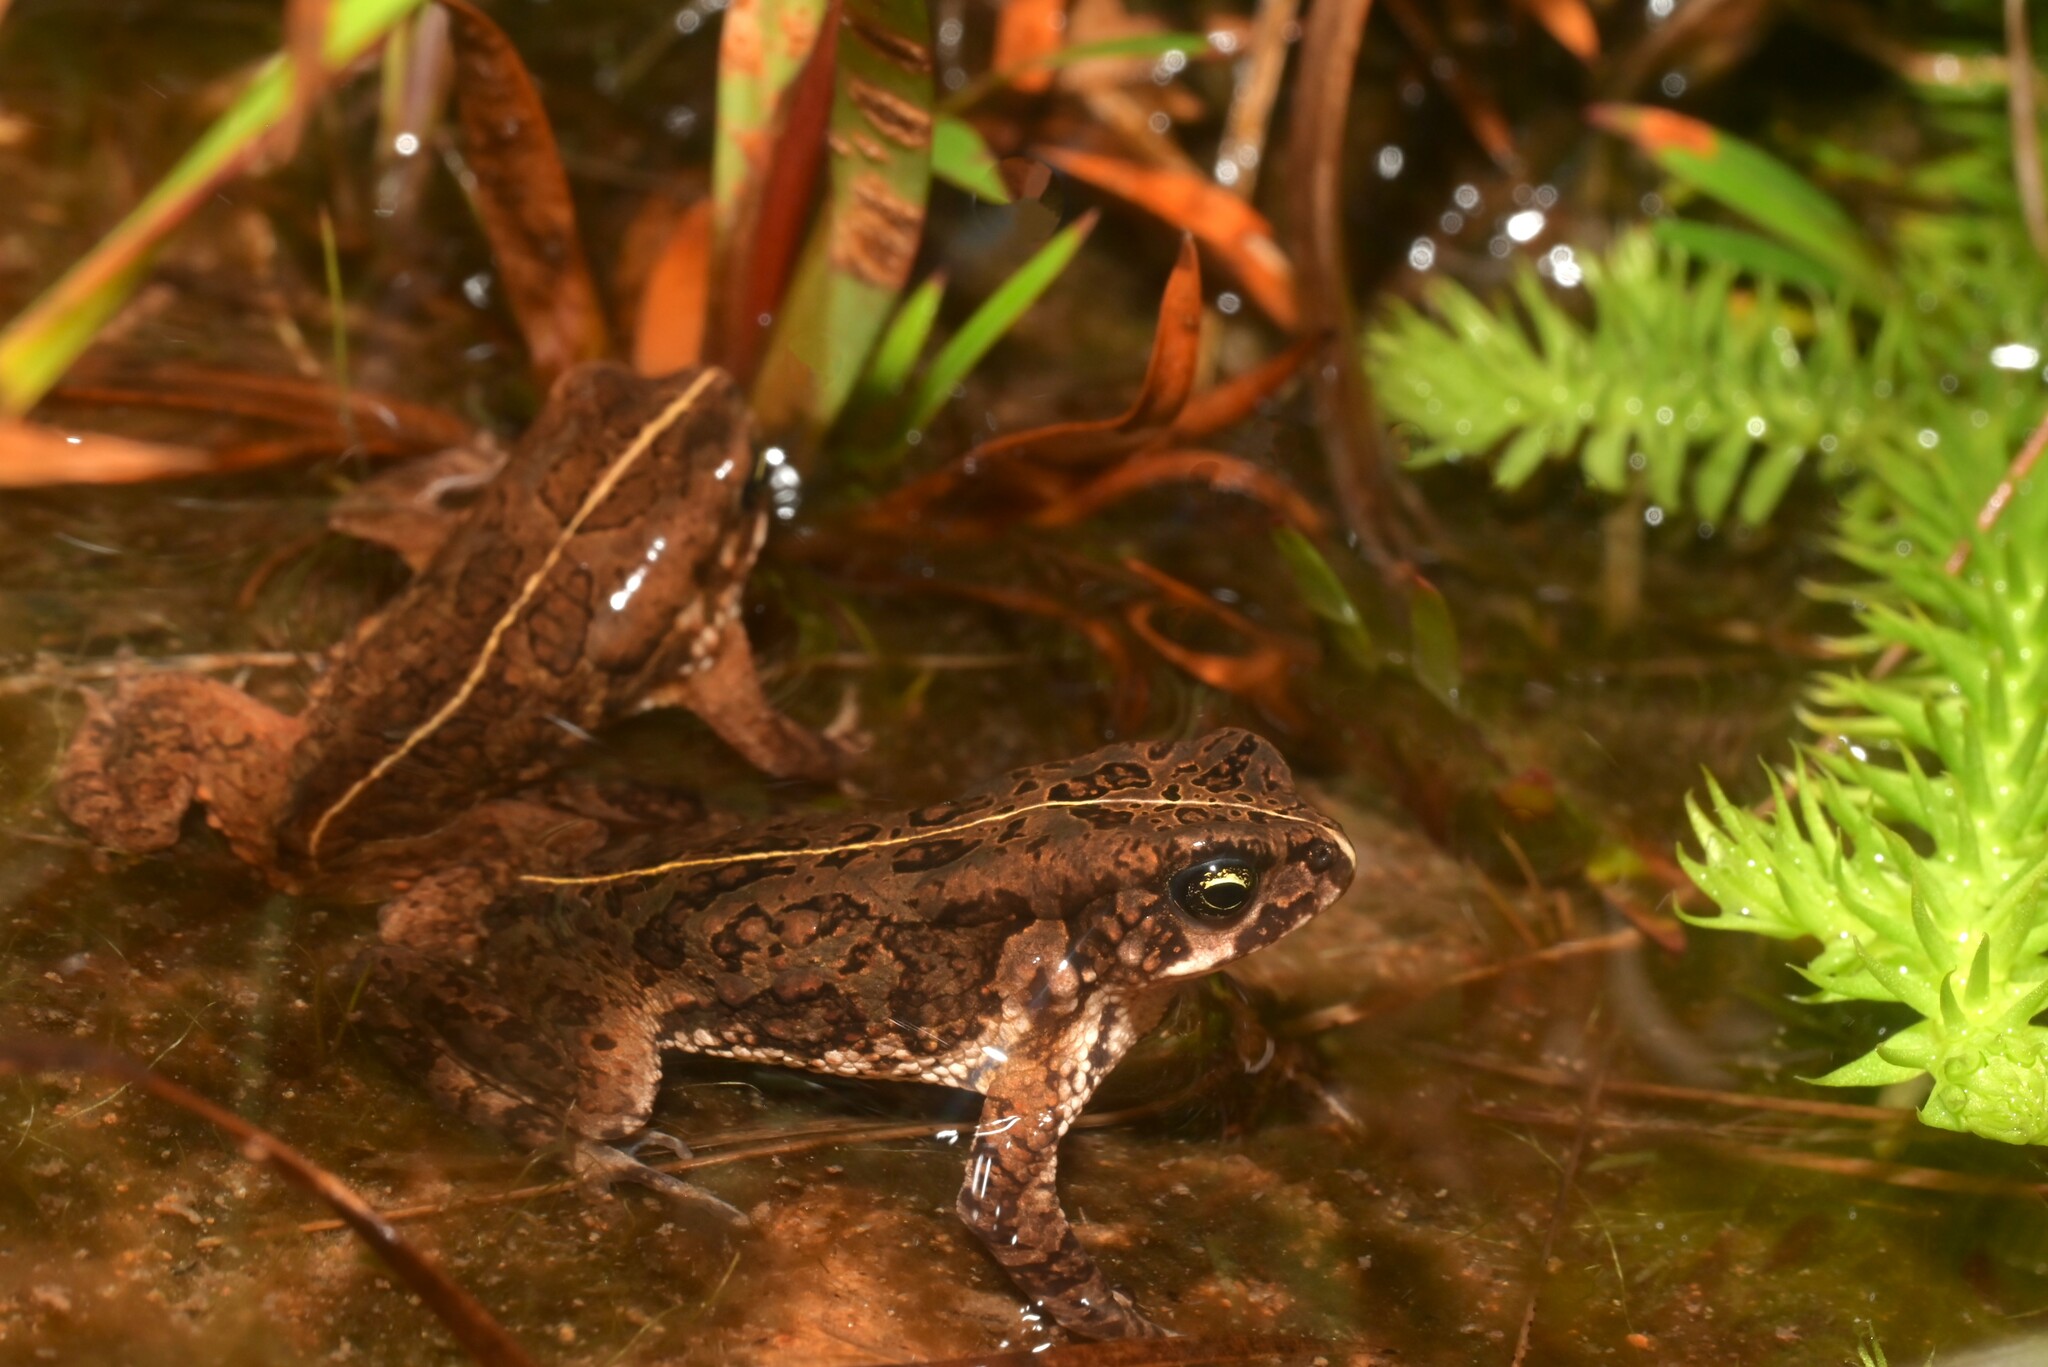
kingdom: Animalia
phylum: Chordata
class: Amphibia
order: Anura
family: Bufonidae
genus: Mertensophryne
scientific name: Mertensophryne uzunguensis
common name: Uzungwe toad
